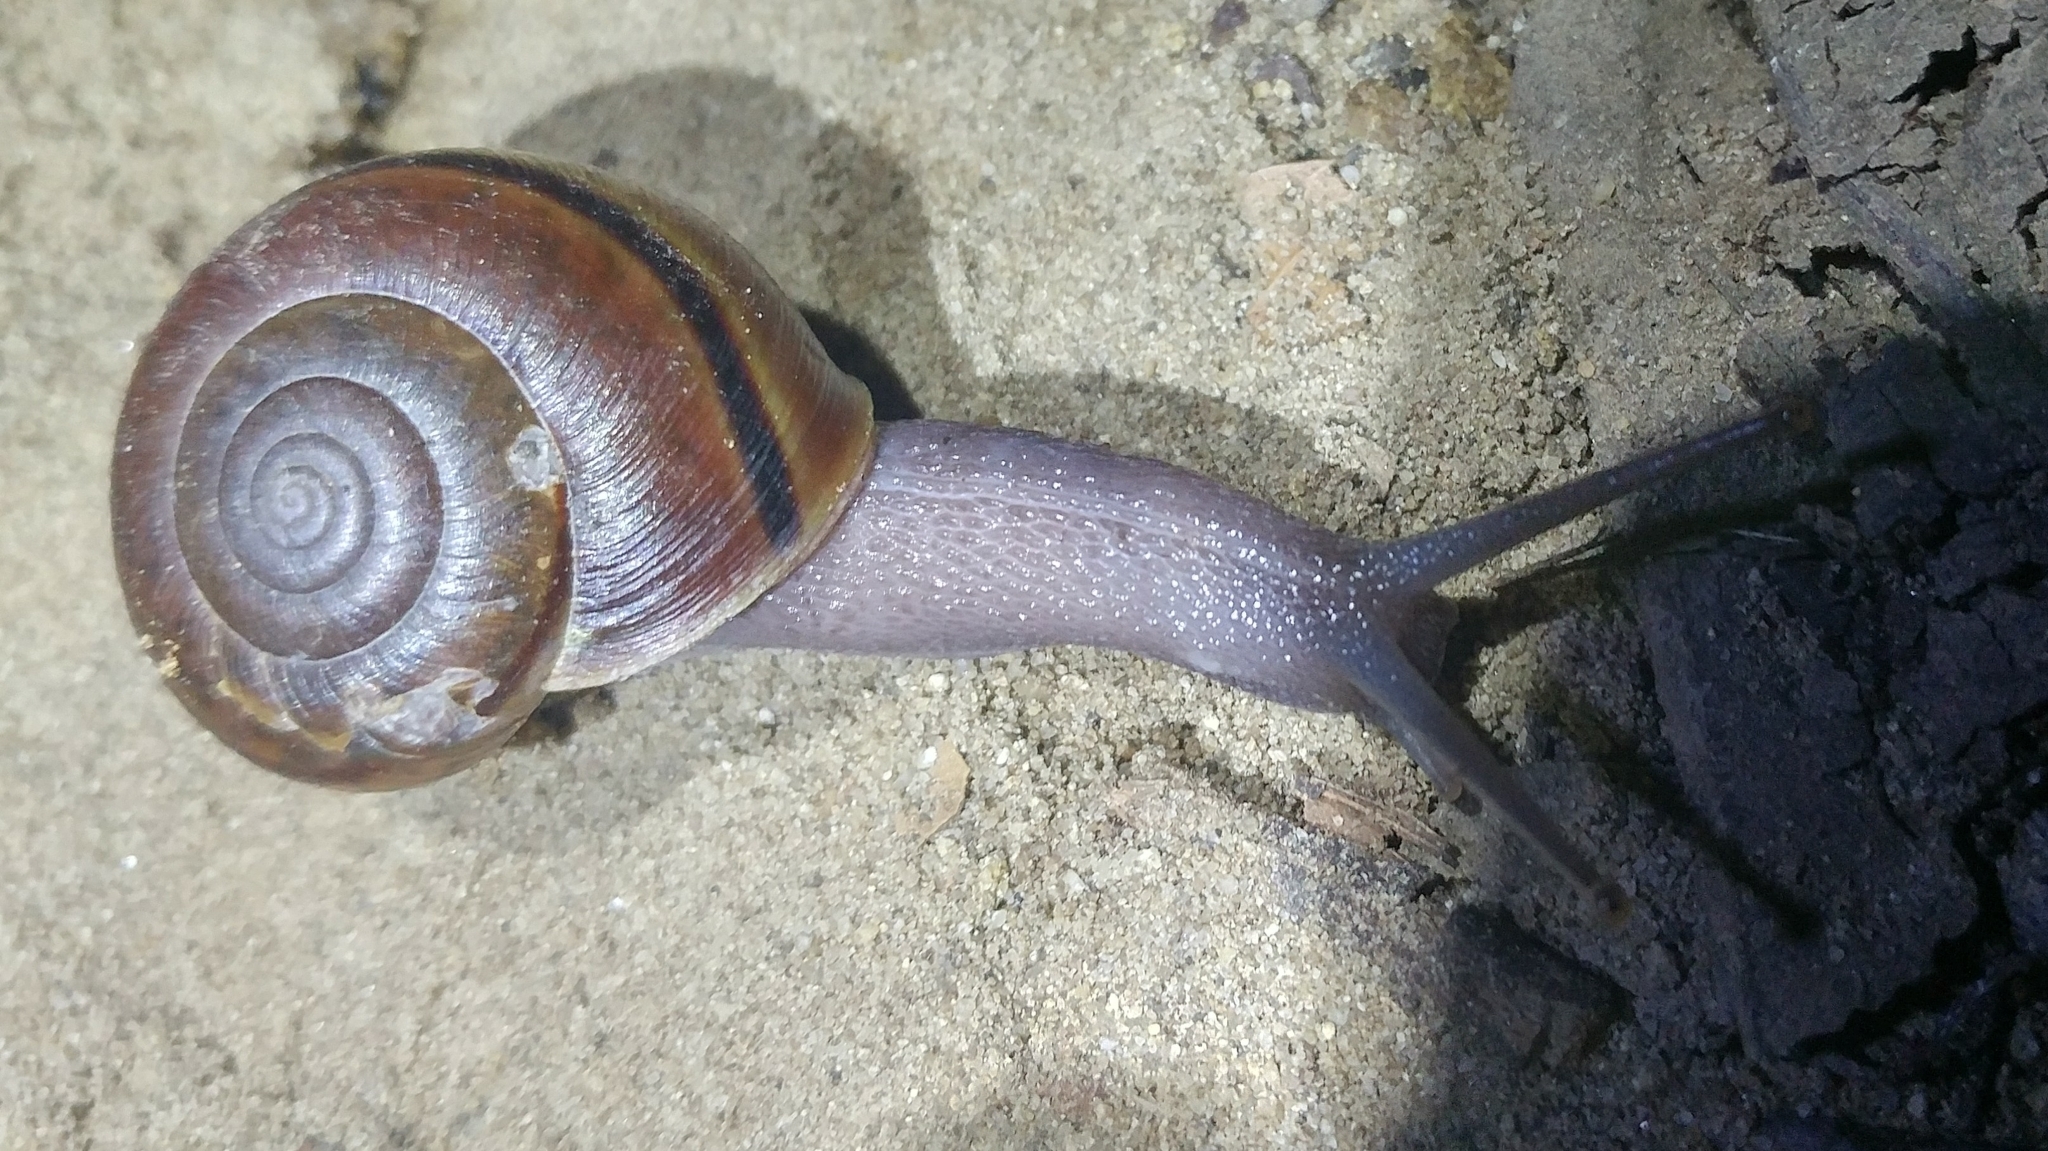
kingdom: Animalia
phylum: Mollusca
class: Gastropoda
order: Stylommatophora
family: Xanthonychidae
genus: Helminthoglypta
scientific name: Helminthoglypta phlyctaena
